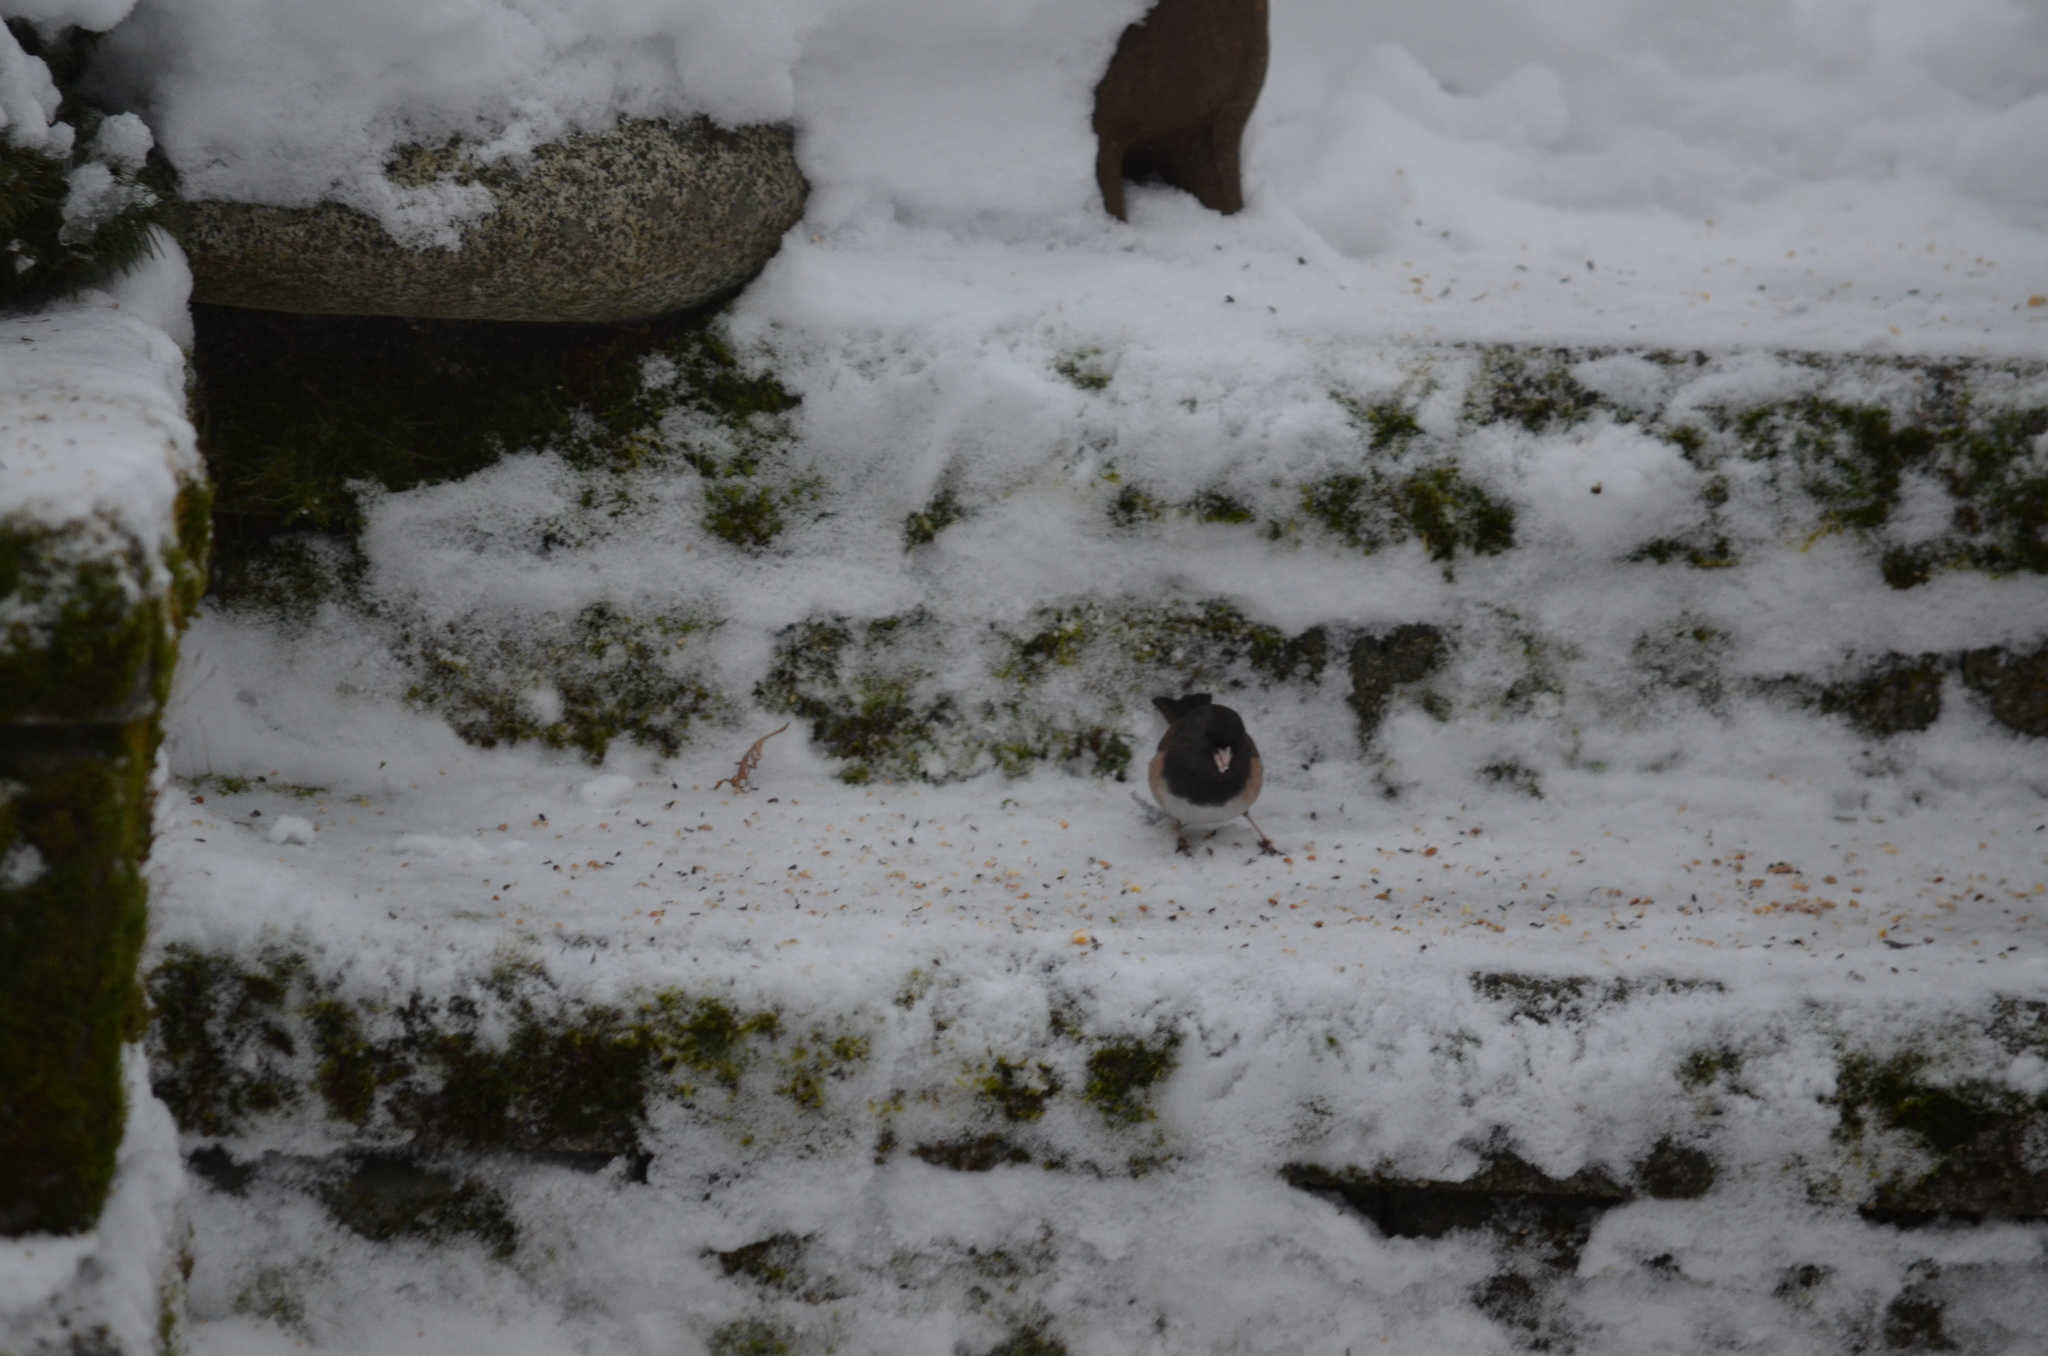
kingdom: Animalia
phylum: Chordata
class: Aves
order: Passeriformes
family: Passerellidae
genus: Junco
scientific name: Junco hyemalis
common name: Dark-eyed junco
